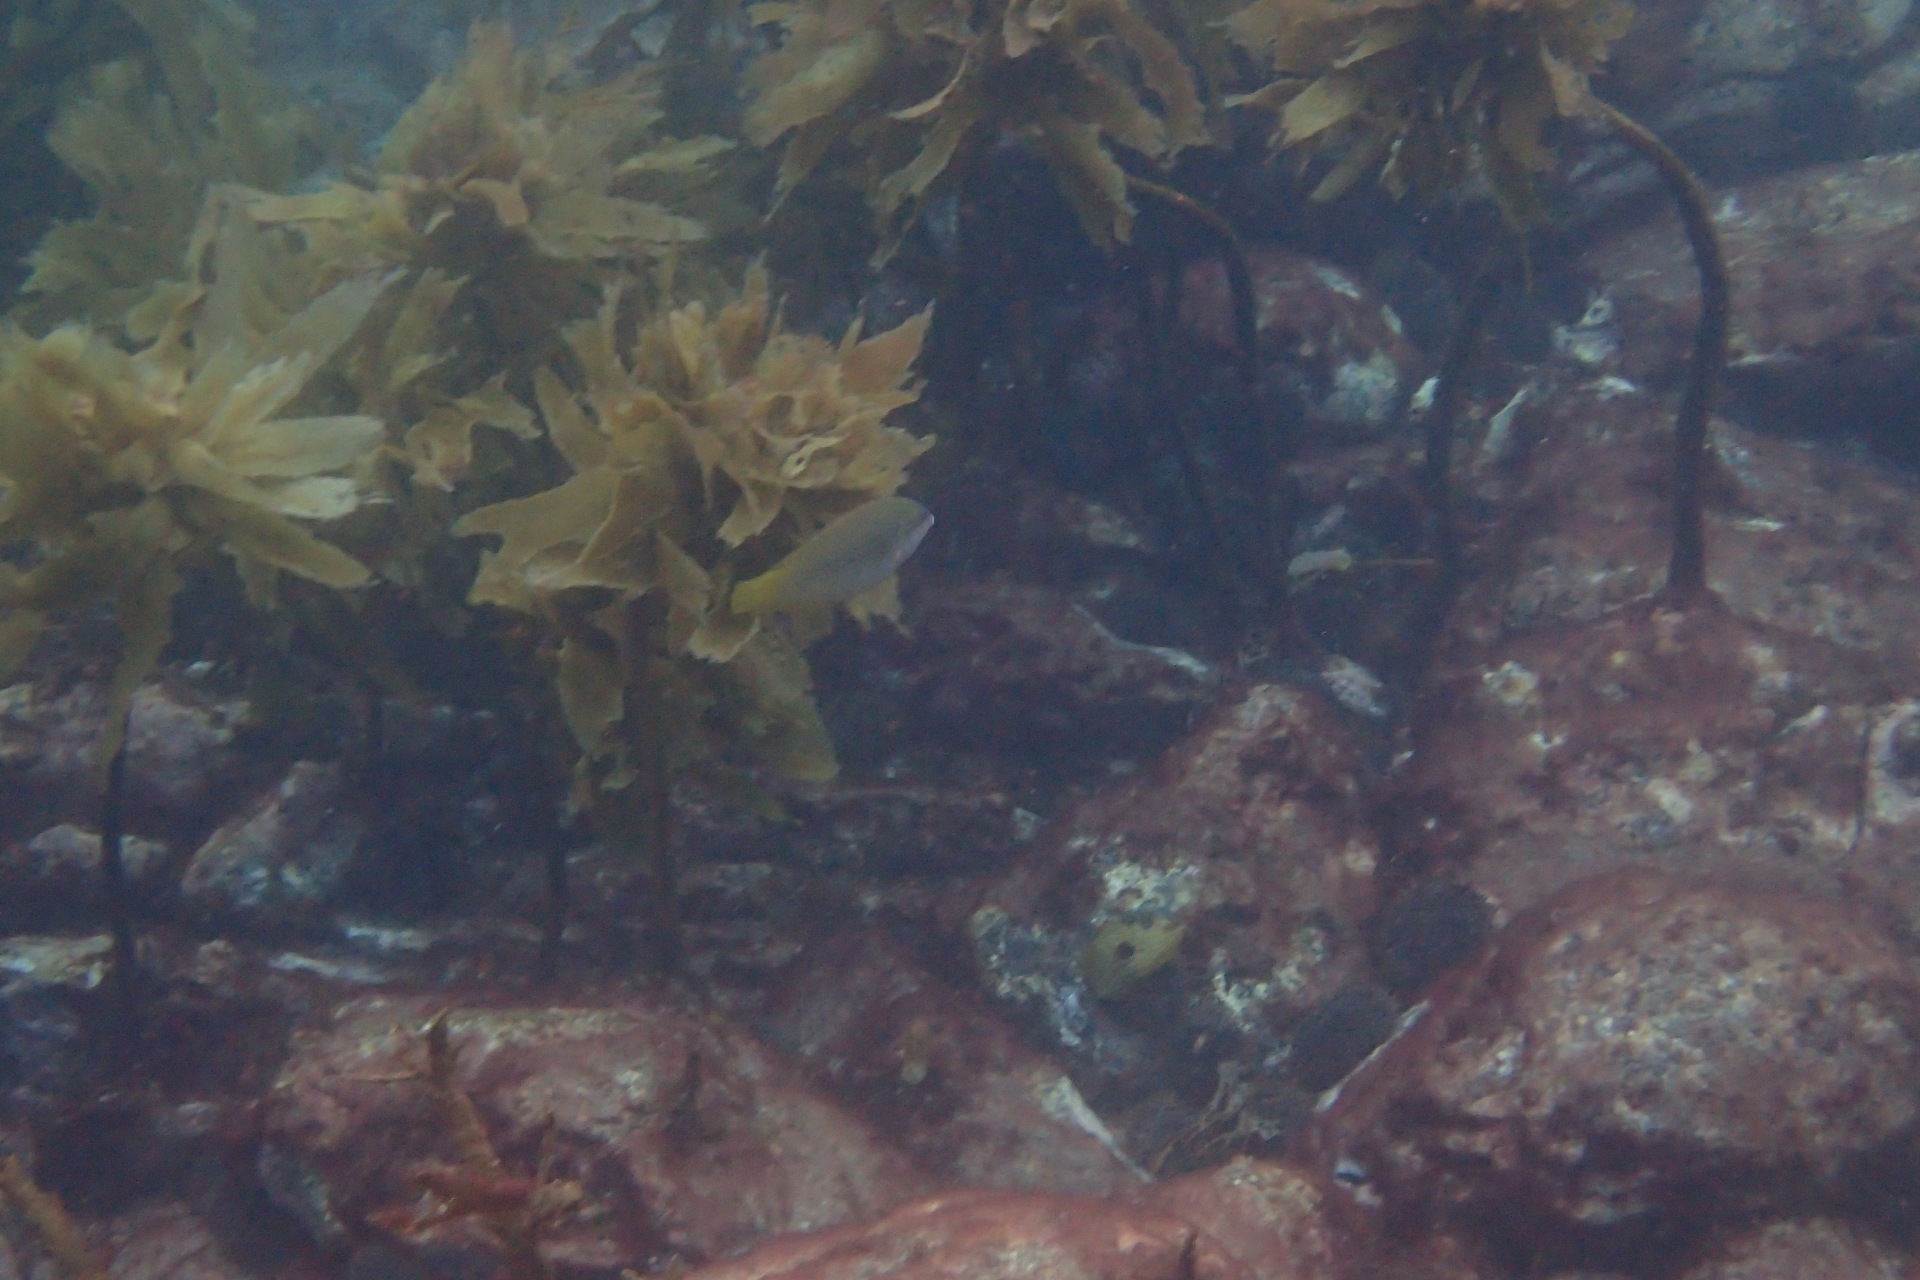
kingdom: Animalia
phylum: Chordata
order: Perciformes
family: Labridae
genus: Anampses
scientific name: Anampses elegans
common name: Elegant wrasse
